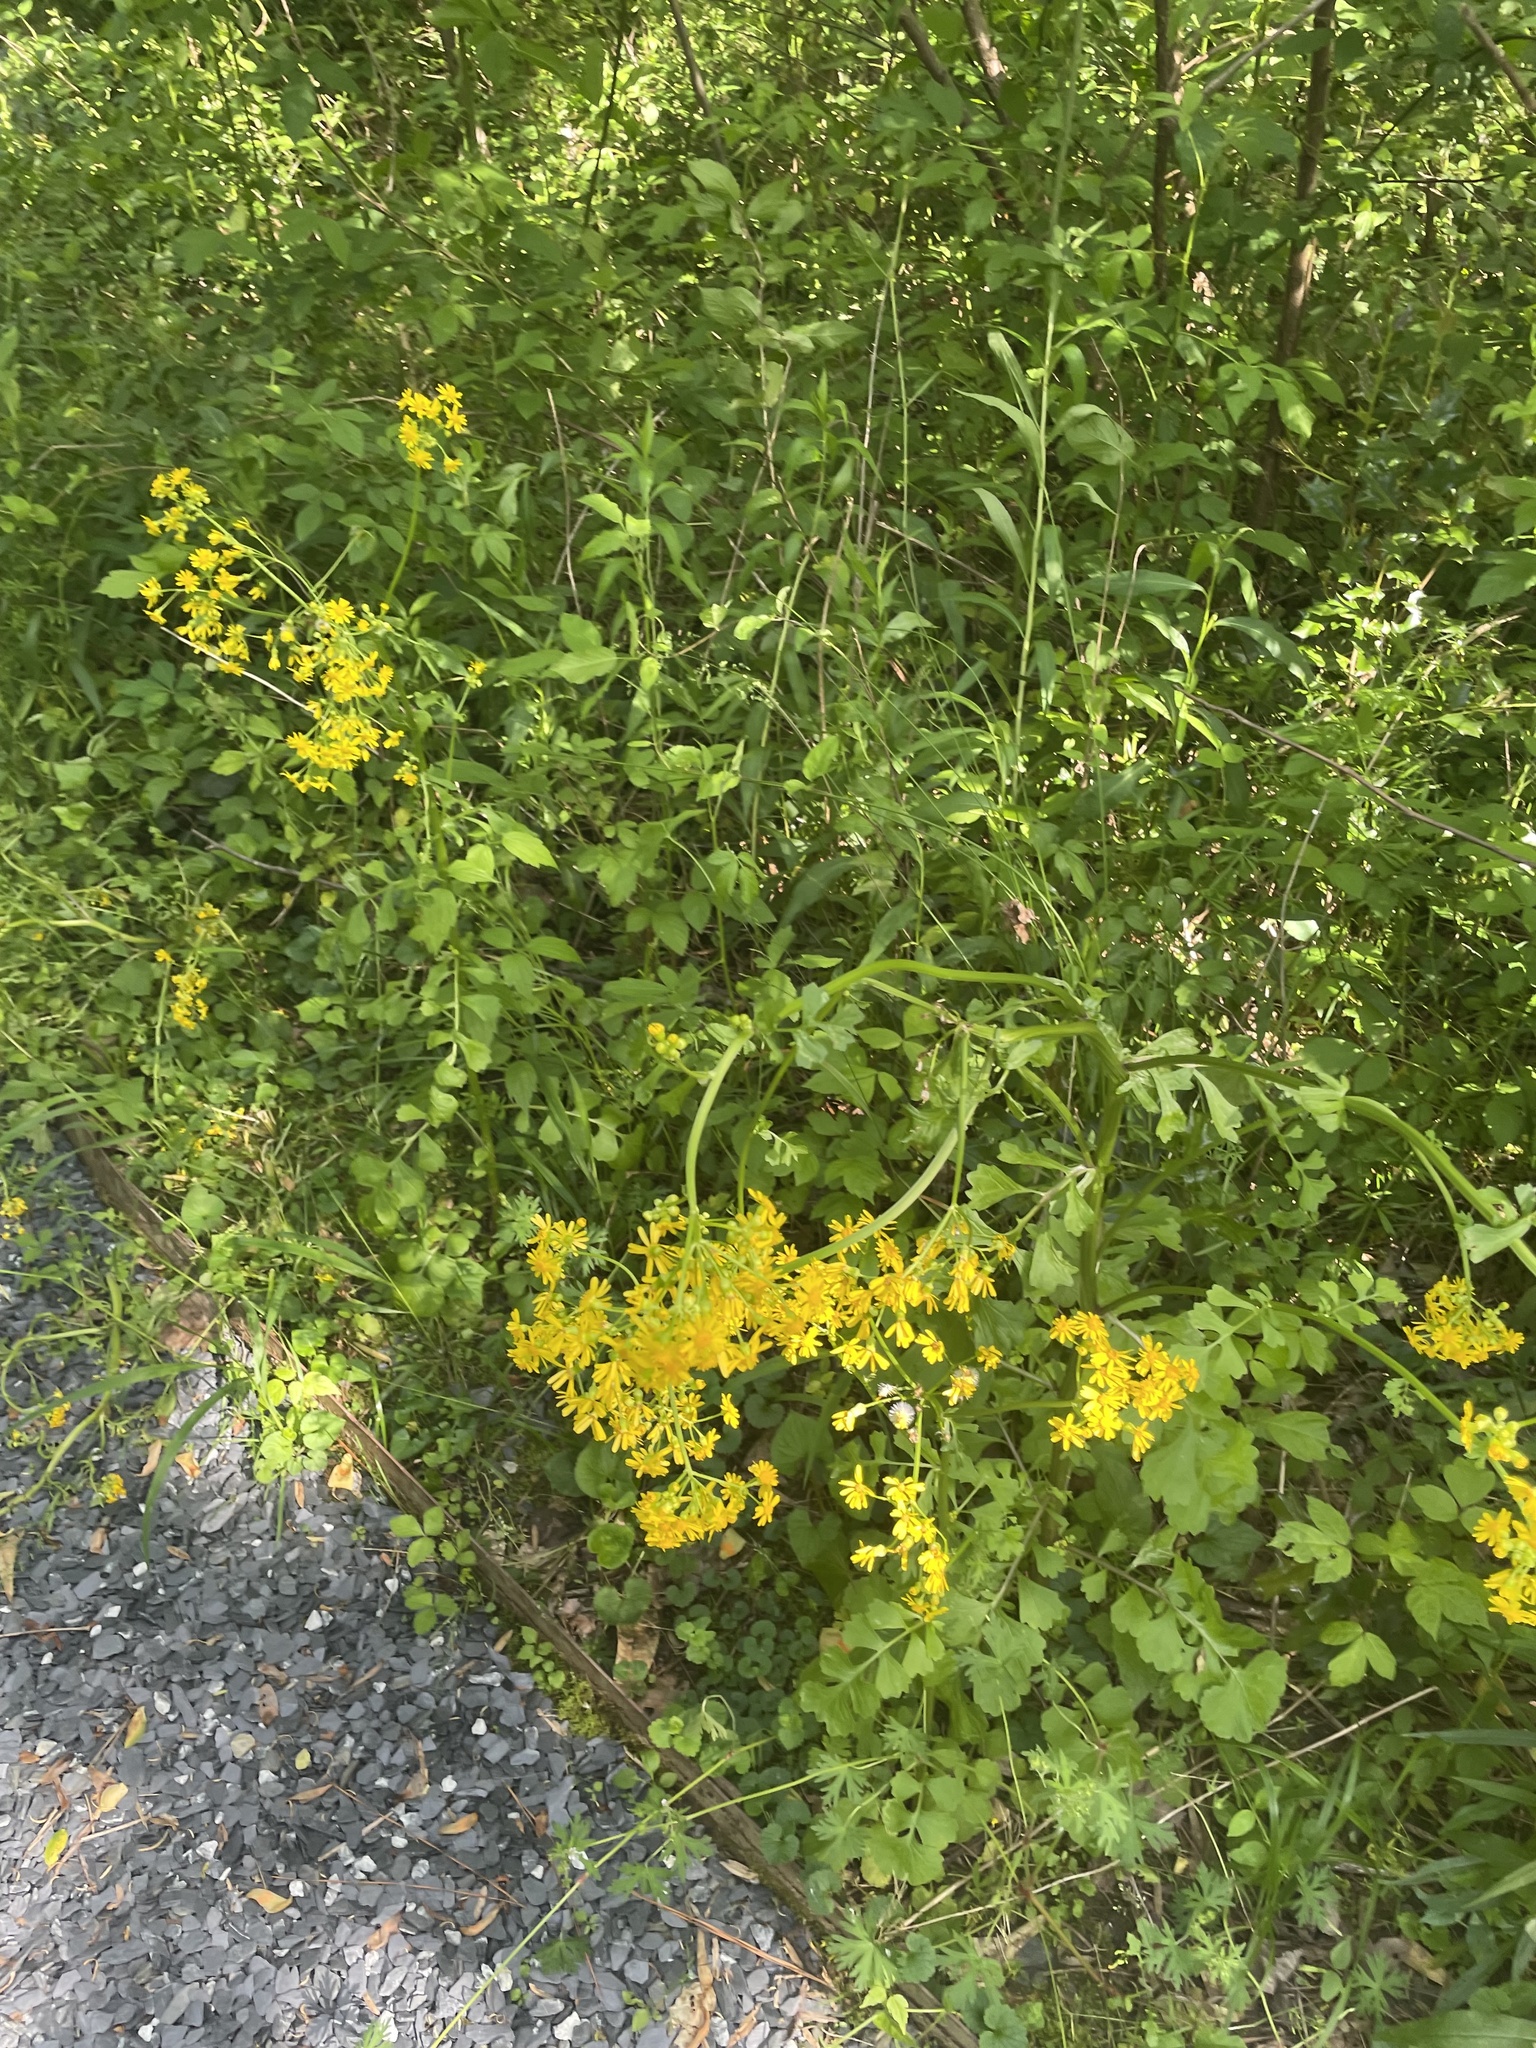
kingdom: Plantae
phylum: Tracheophyta
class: Magnoliopsida
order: Asterales
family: Asteraceae
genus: Packera
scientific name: Packera glabella
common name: Butterweed
